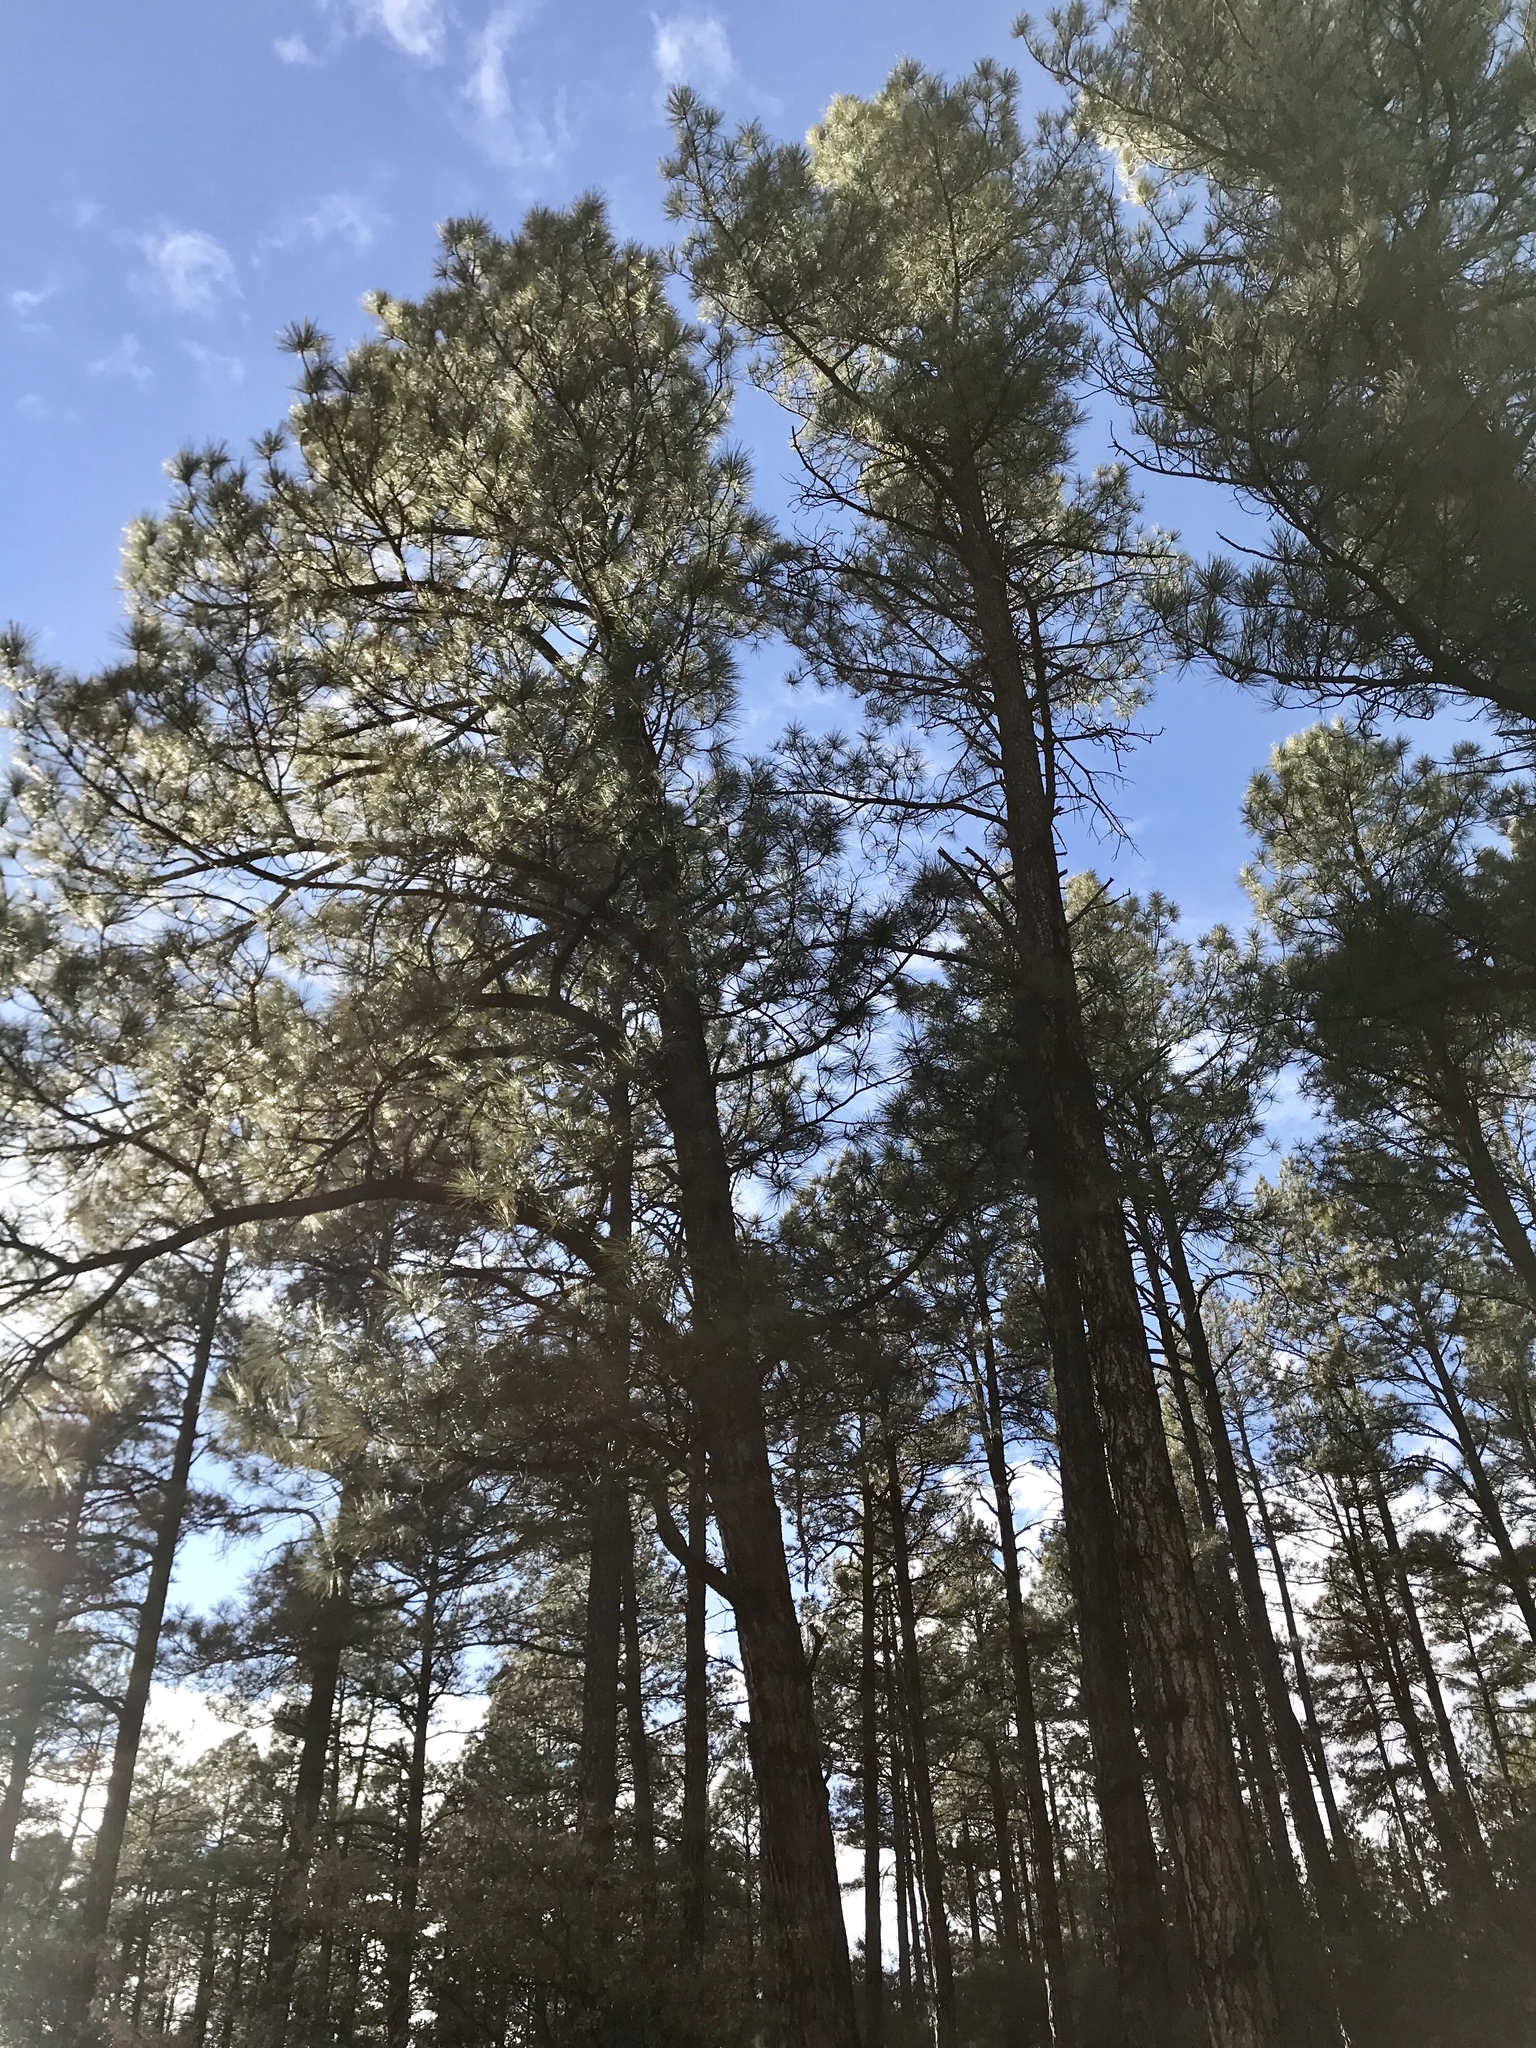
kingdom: Plantae
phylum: Tracheophyta
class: Pinopsida
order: Pinales
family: Pinaceae
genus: Pinus
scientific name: Pinus ponderosa
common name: Western yellow-pine
